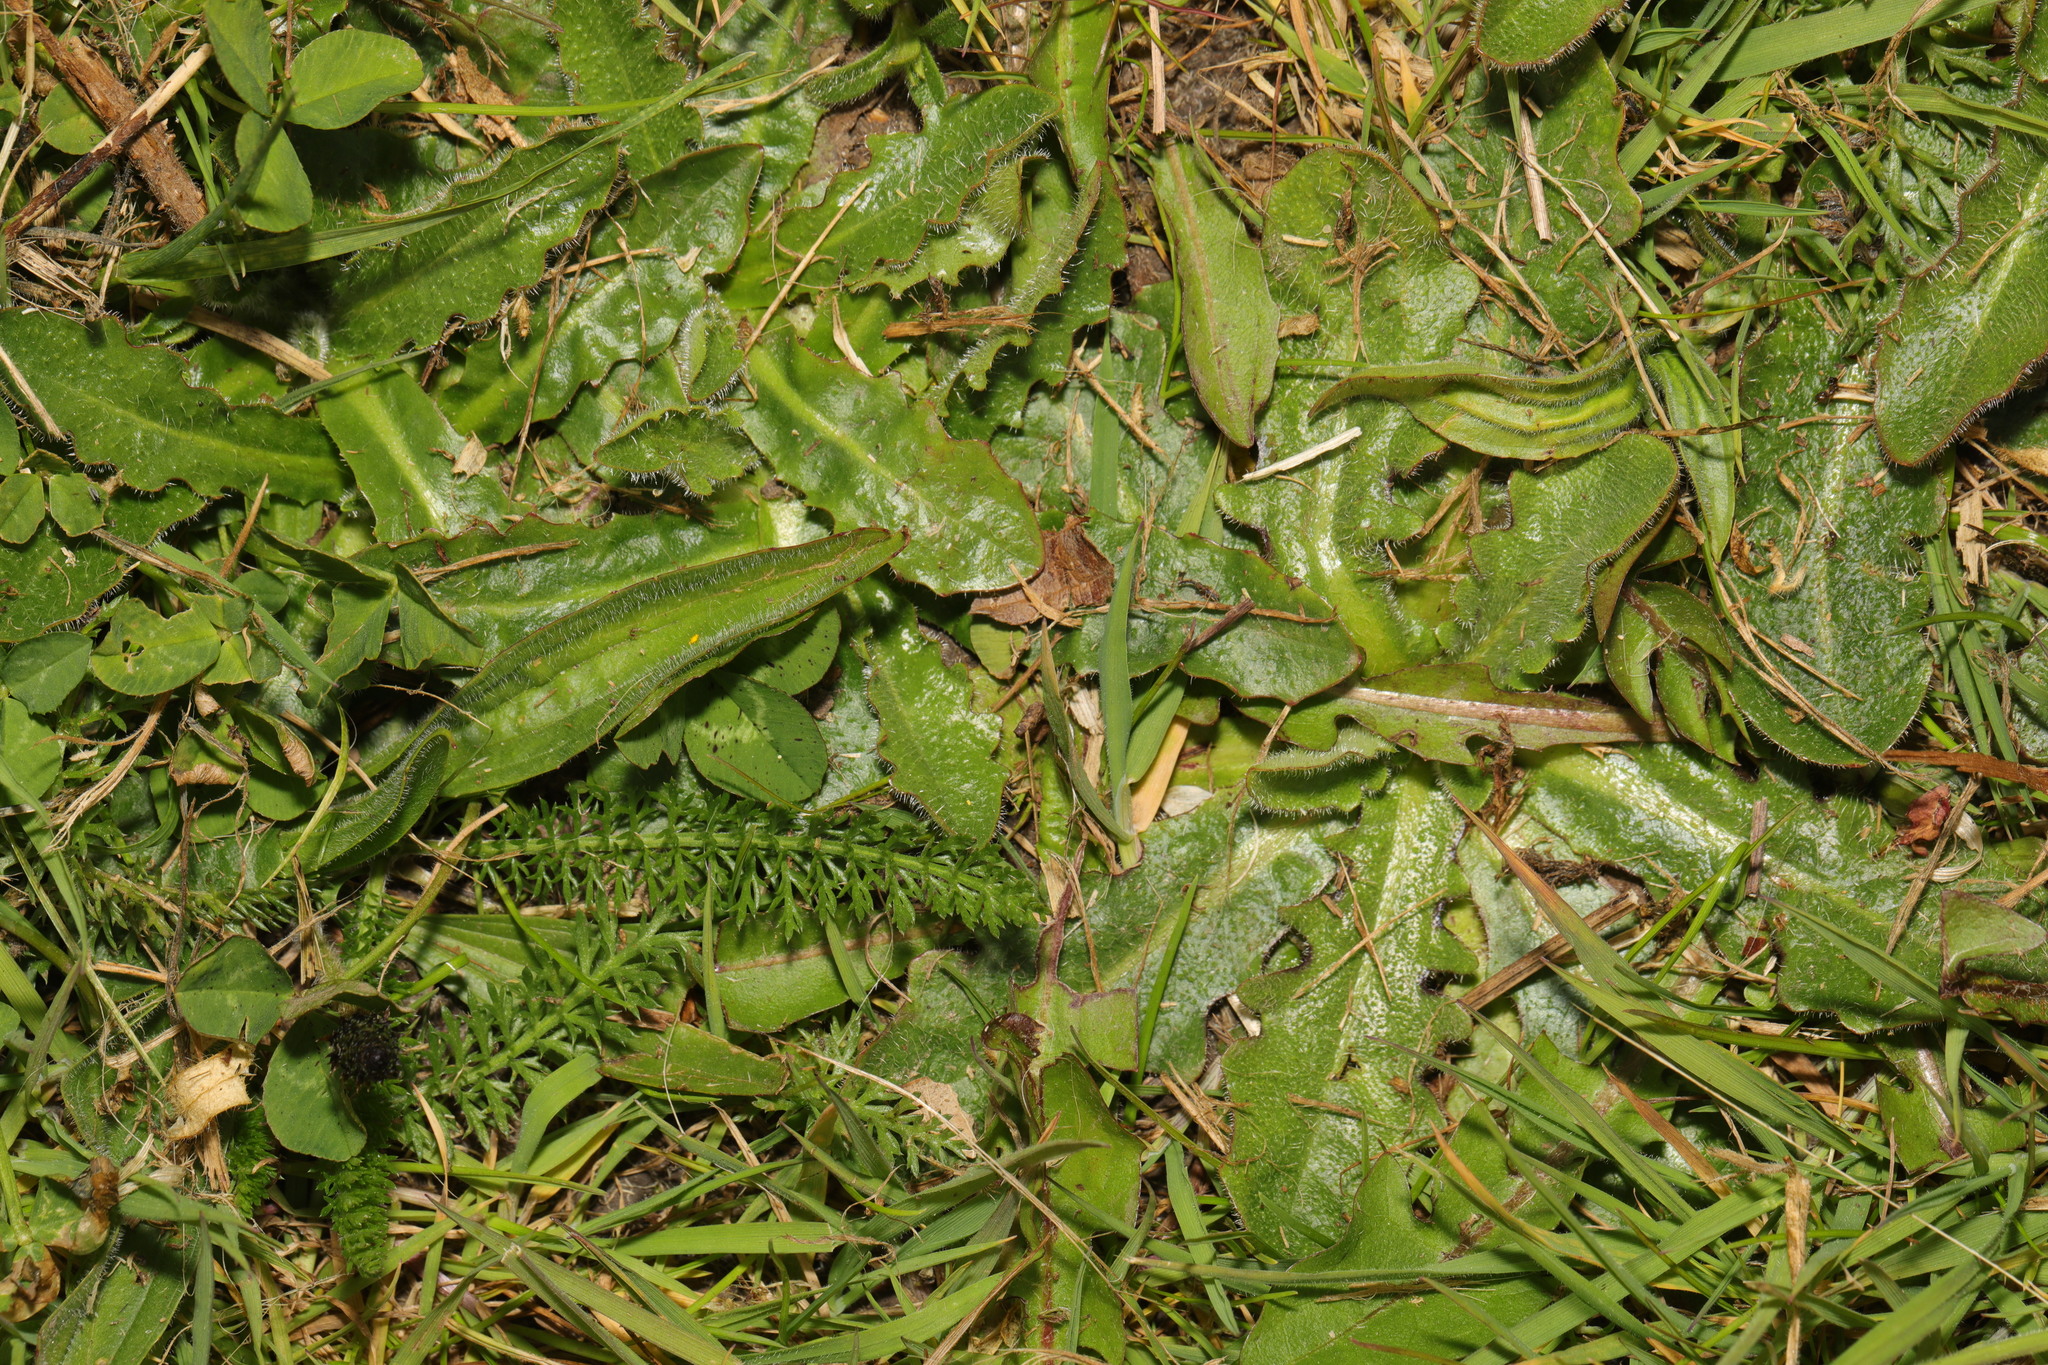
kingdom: Plantae
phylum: Tracheophyta
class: Magnoliopsida
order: Asterales
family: Asteraceae
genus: Hypochaeris
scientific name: Hypochaeris radicata
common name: Flatweed
